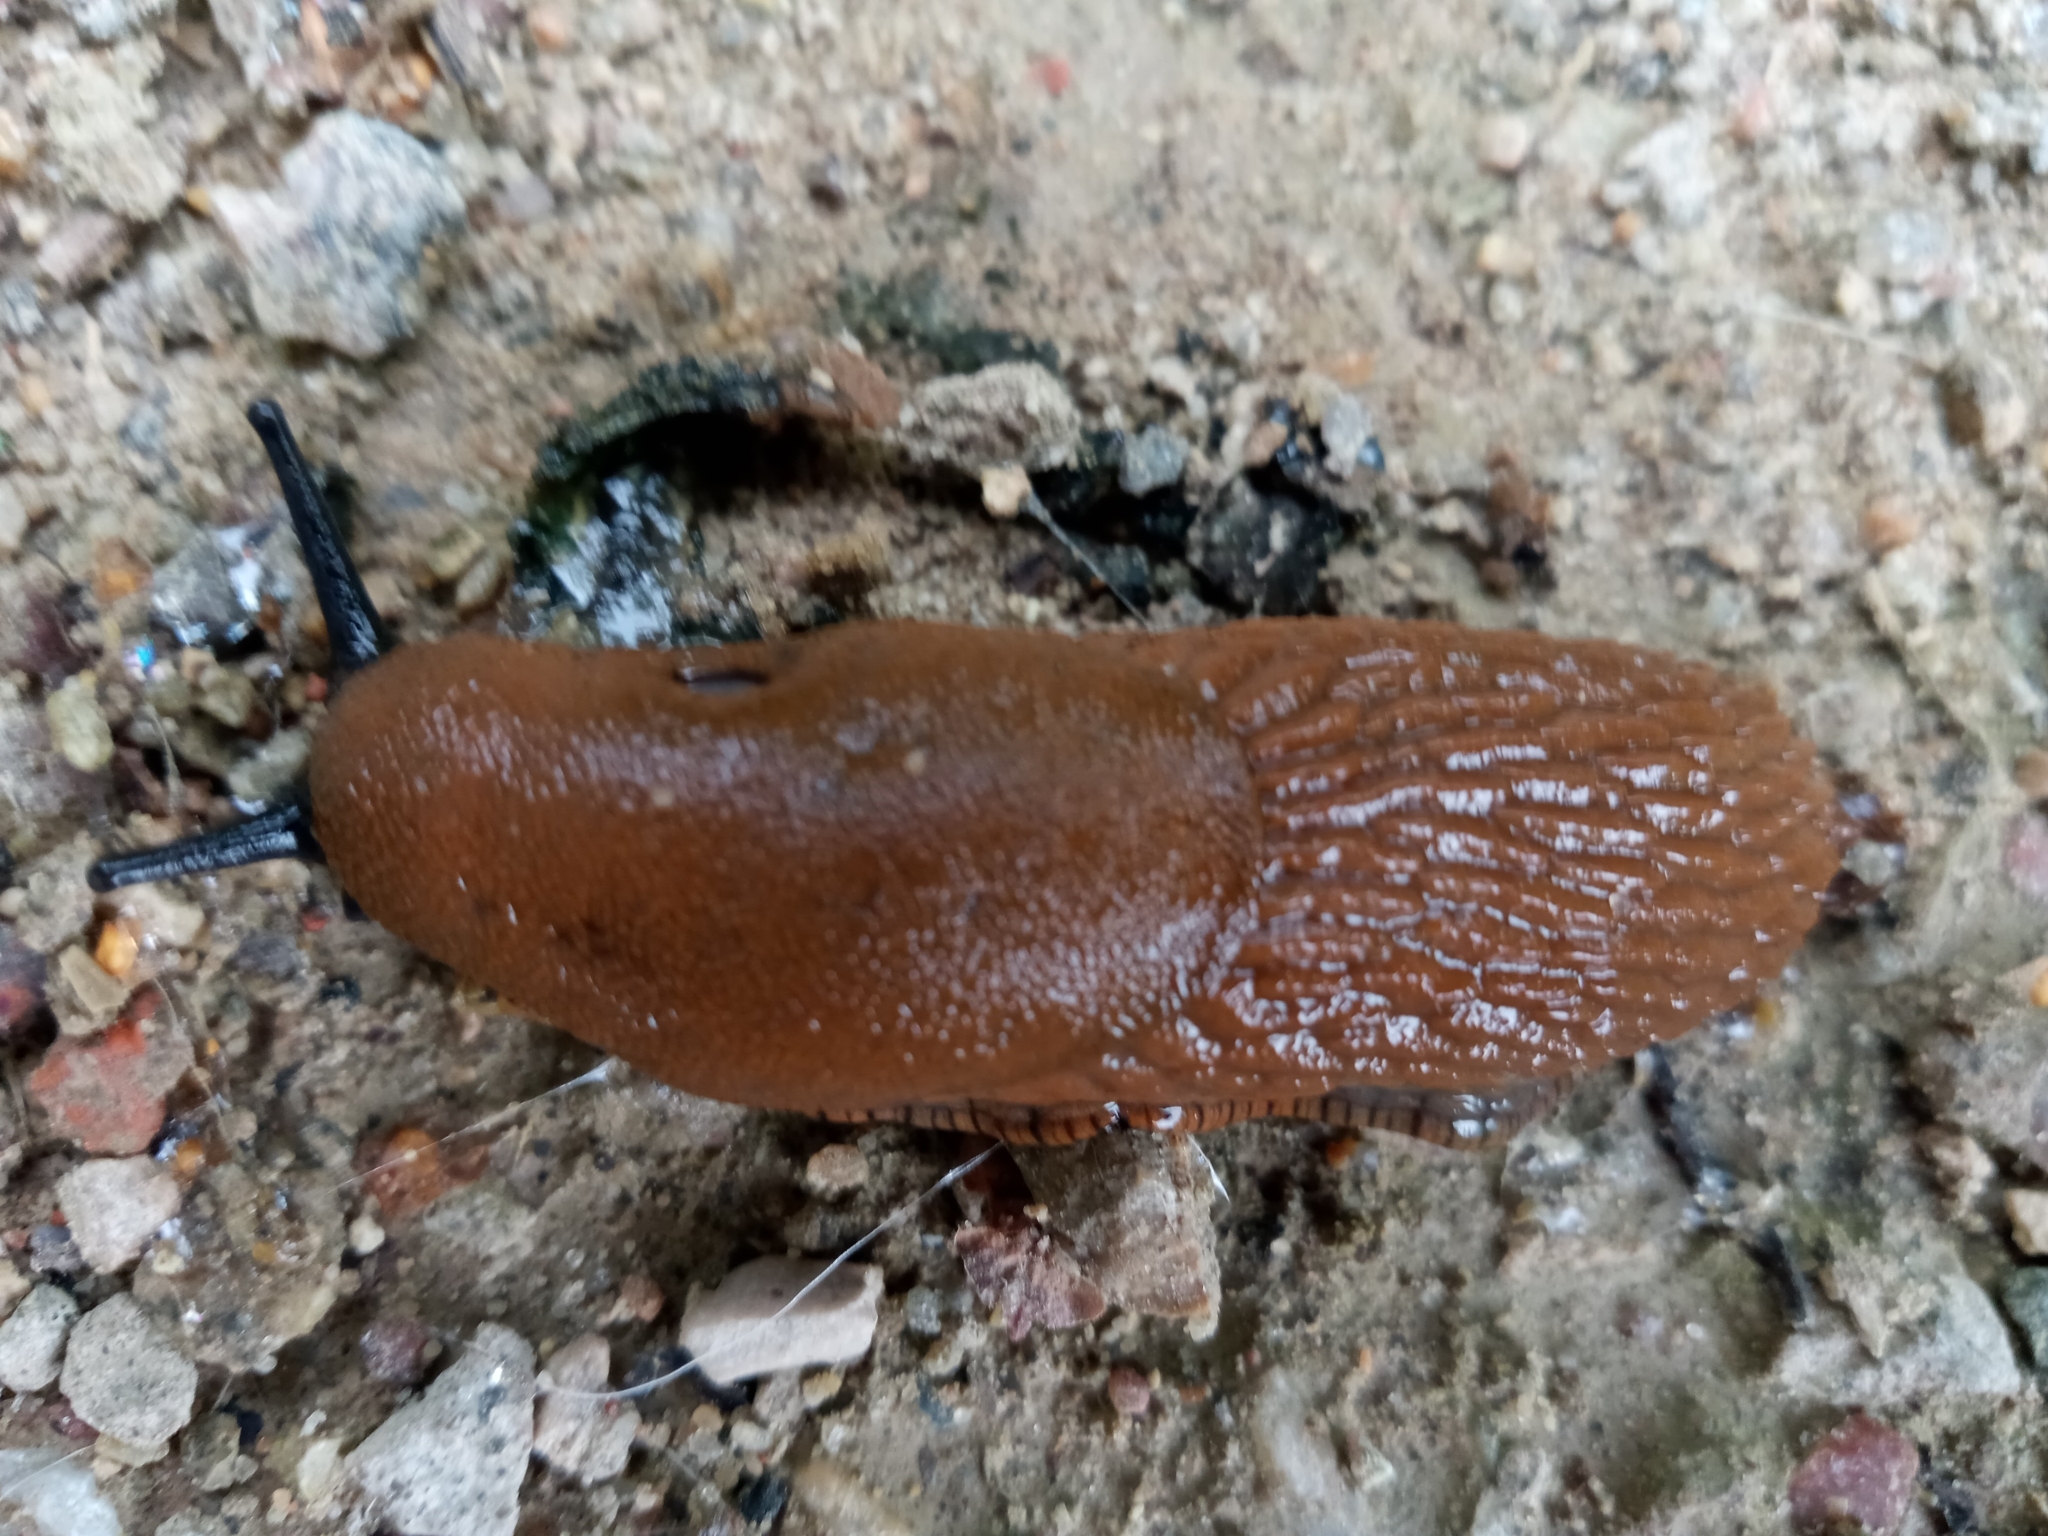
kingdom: Animalia
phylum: Mollusca
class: Gastropoda
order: Stylommatophora
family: Arionidae
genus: Arion
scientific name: Arion
